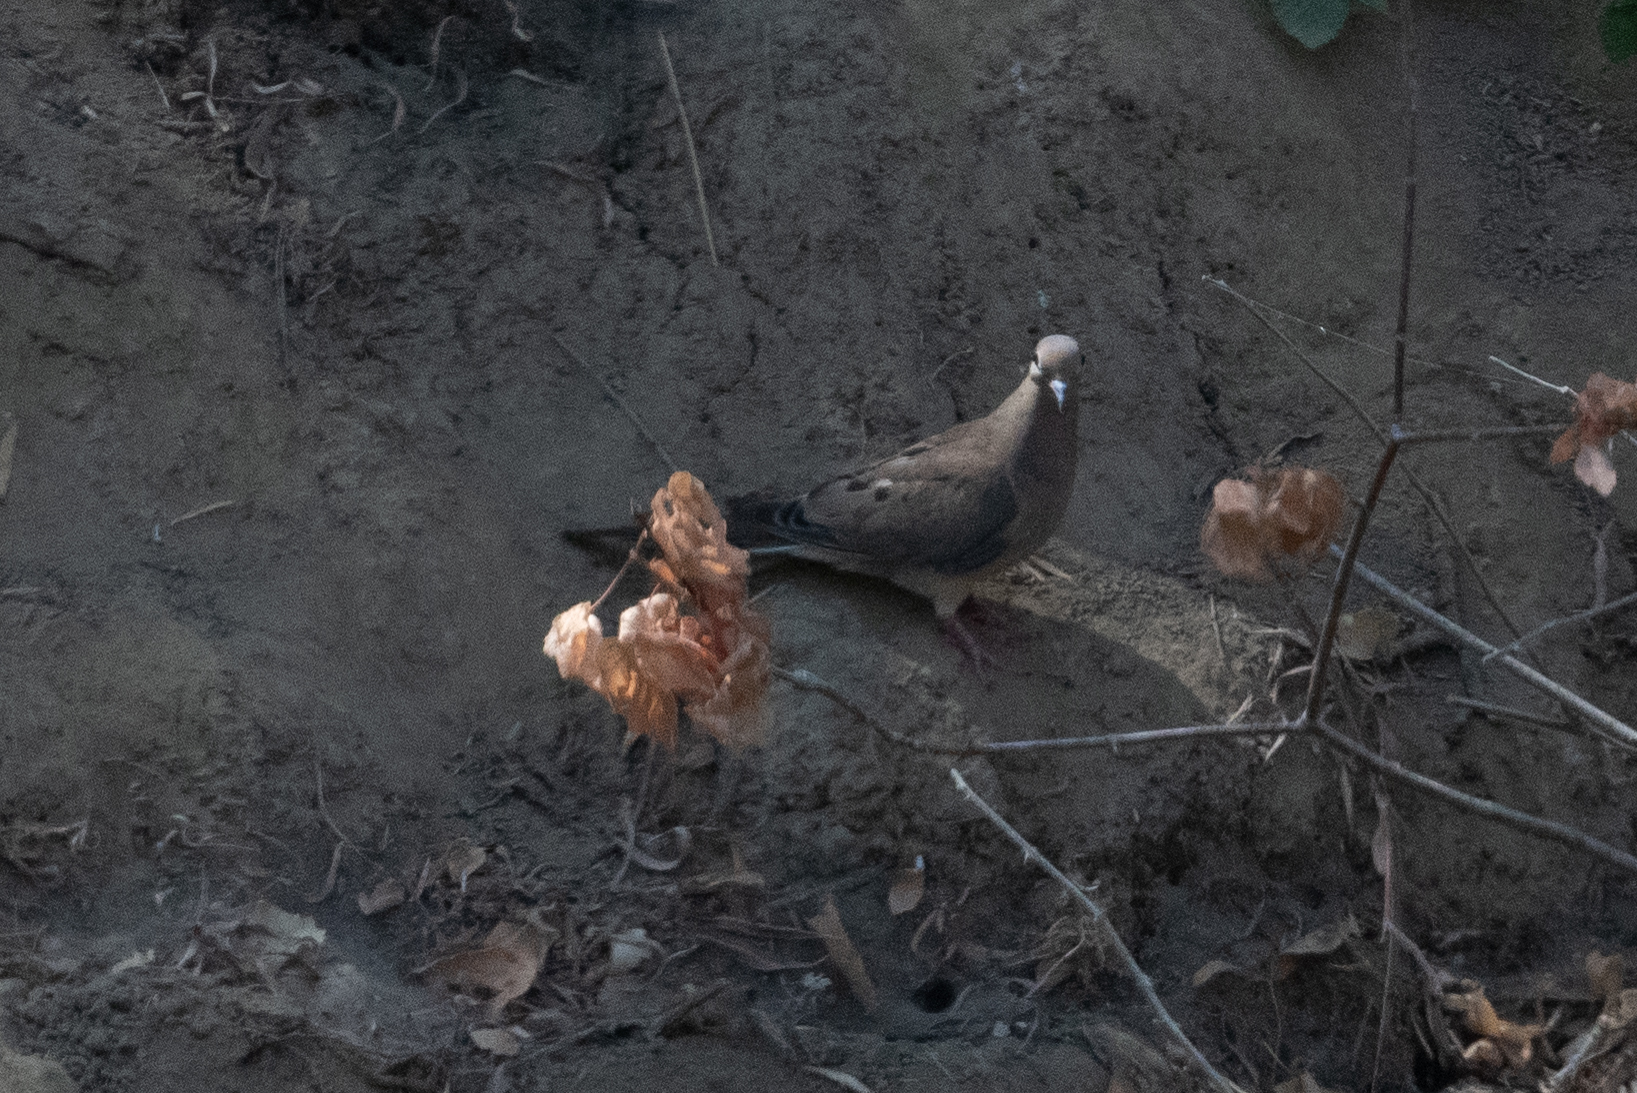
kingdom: Animalia
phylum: Chordata
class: Aves
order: Columbiformes
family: Columbidae
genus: Zenaida
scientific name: Zenaida macroura
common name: Mourning dove
